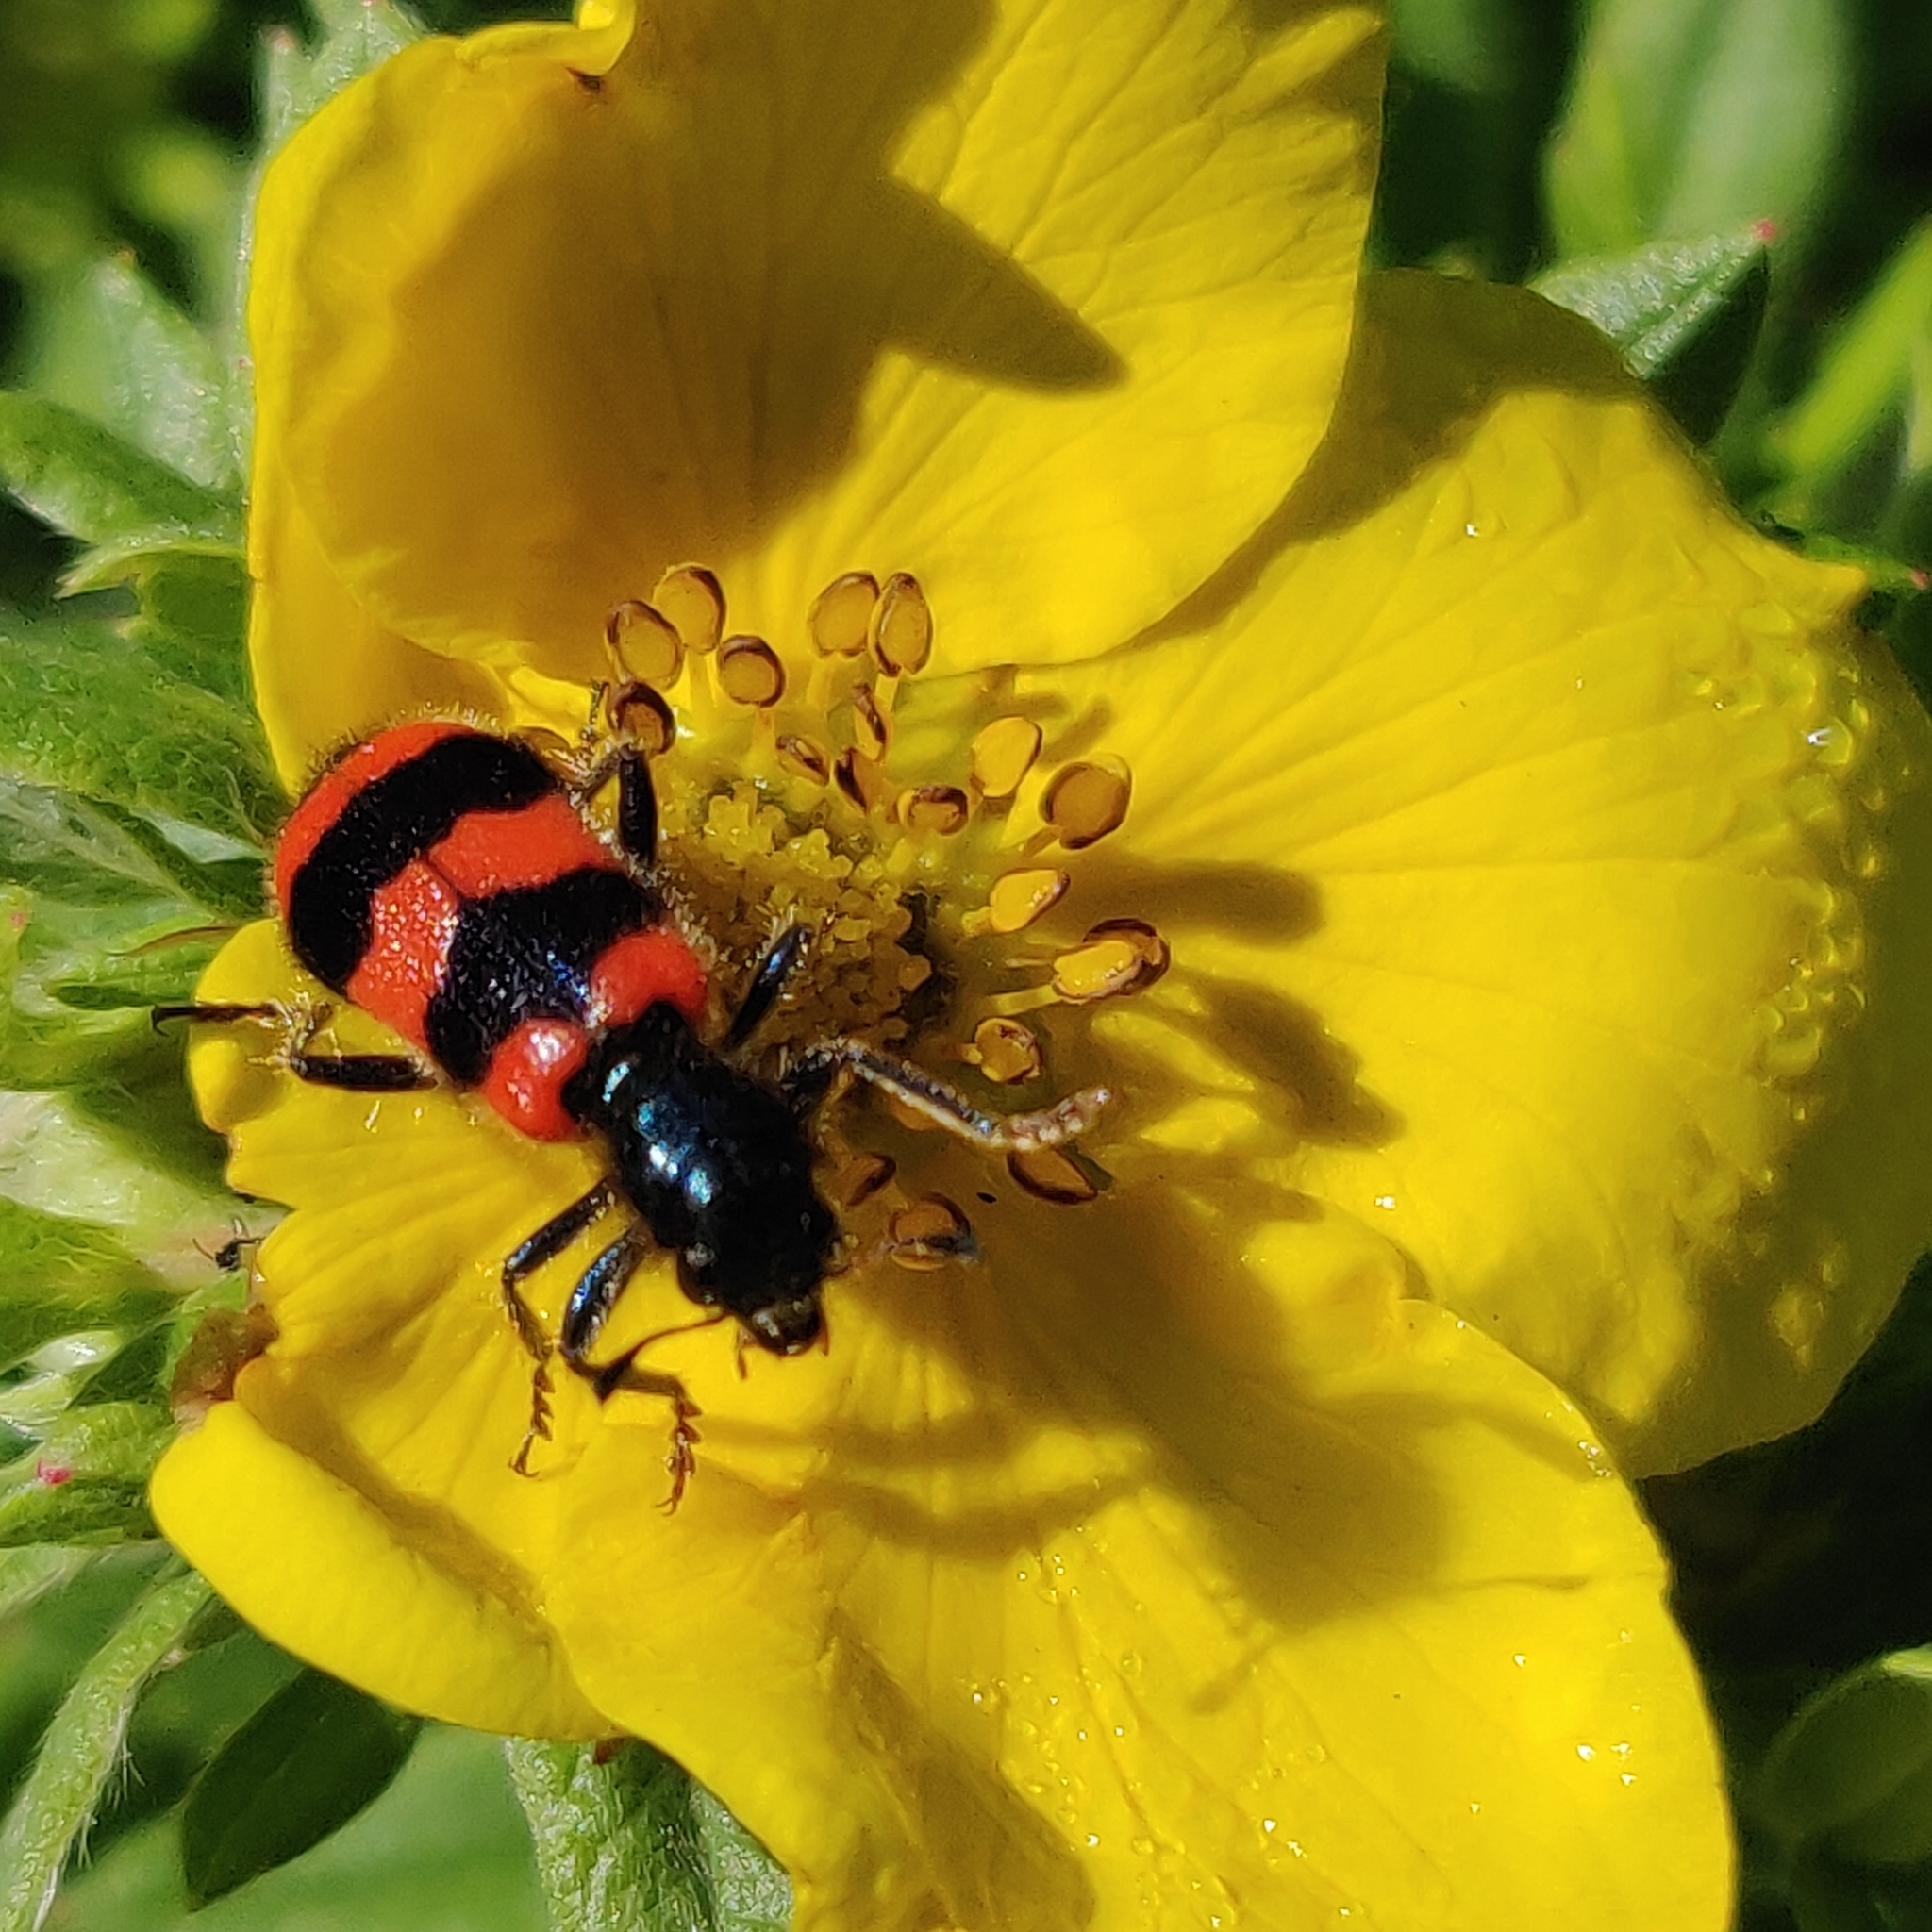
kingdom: Animalia
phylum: Arthropoda
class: Insecta
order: Coleoptera
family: Cleridae
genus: Trichodes
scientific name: Trichodes apiarius
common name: Bee-eating beetle
